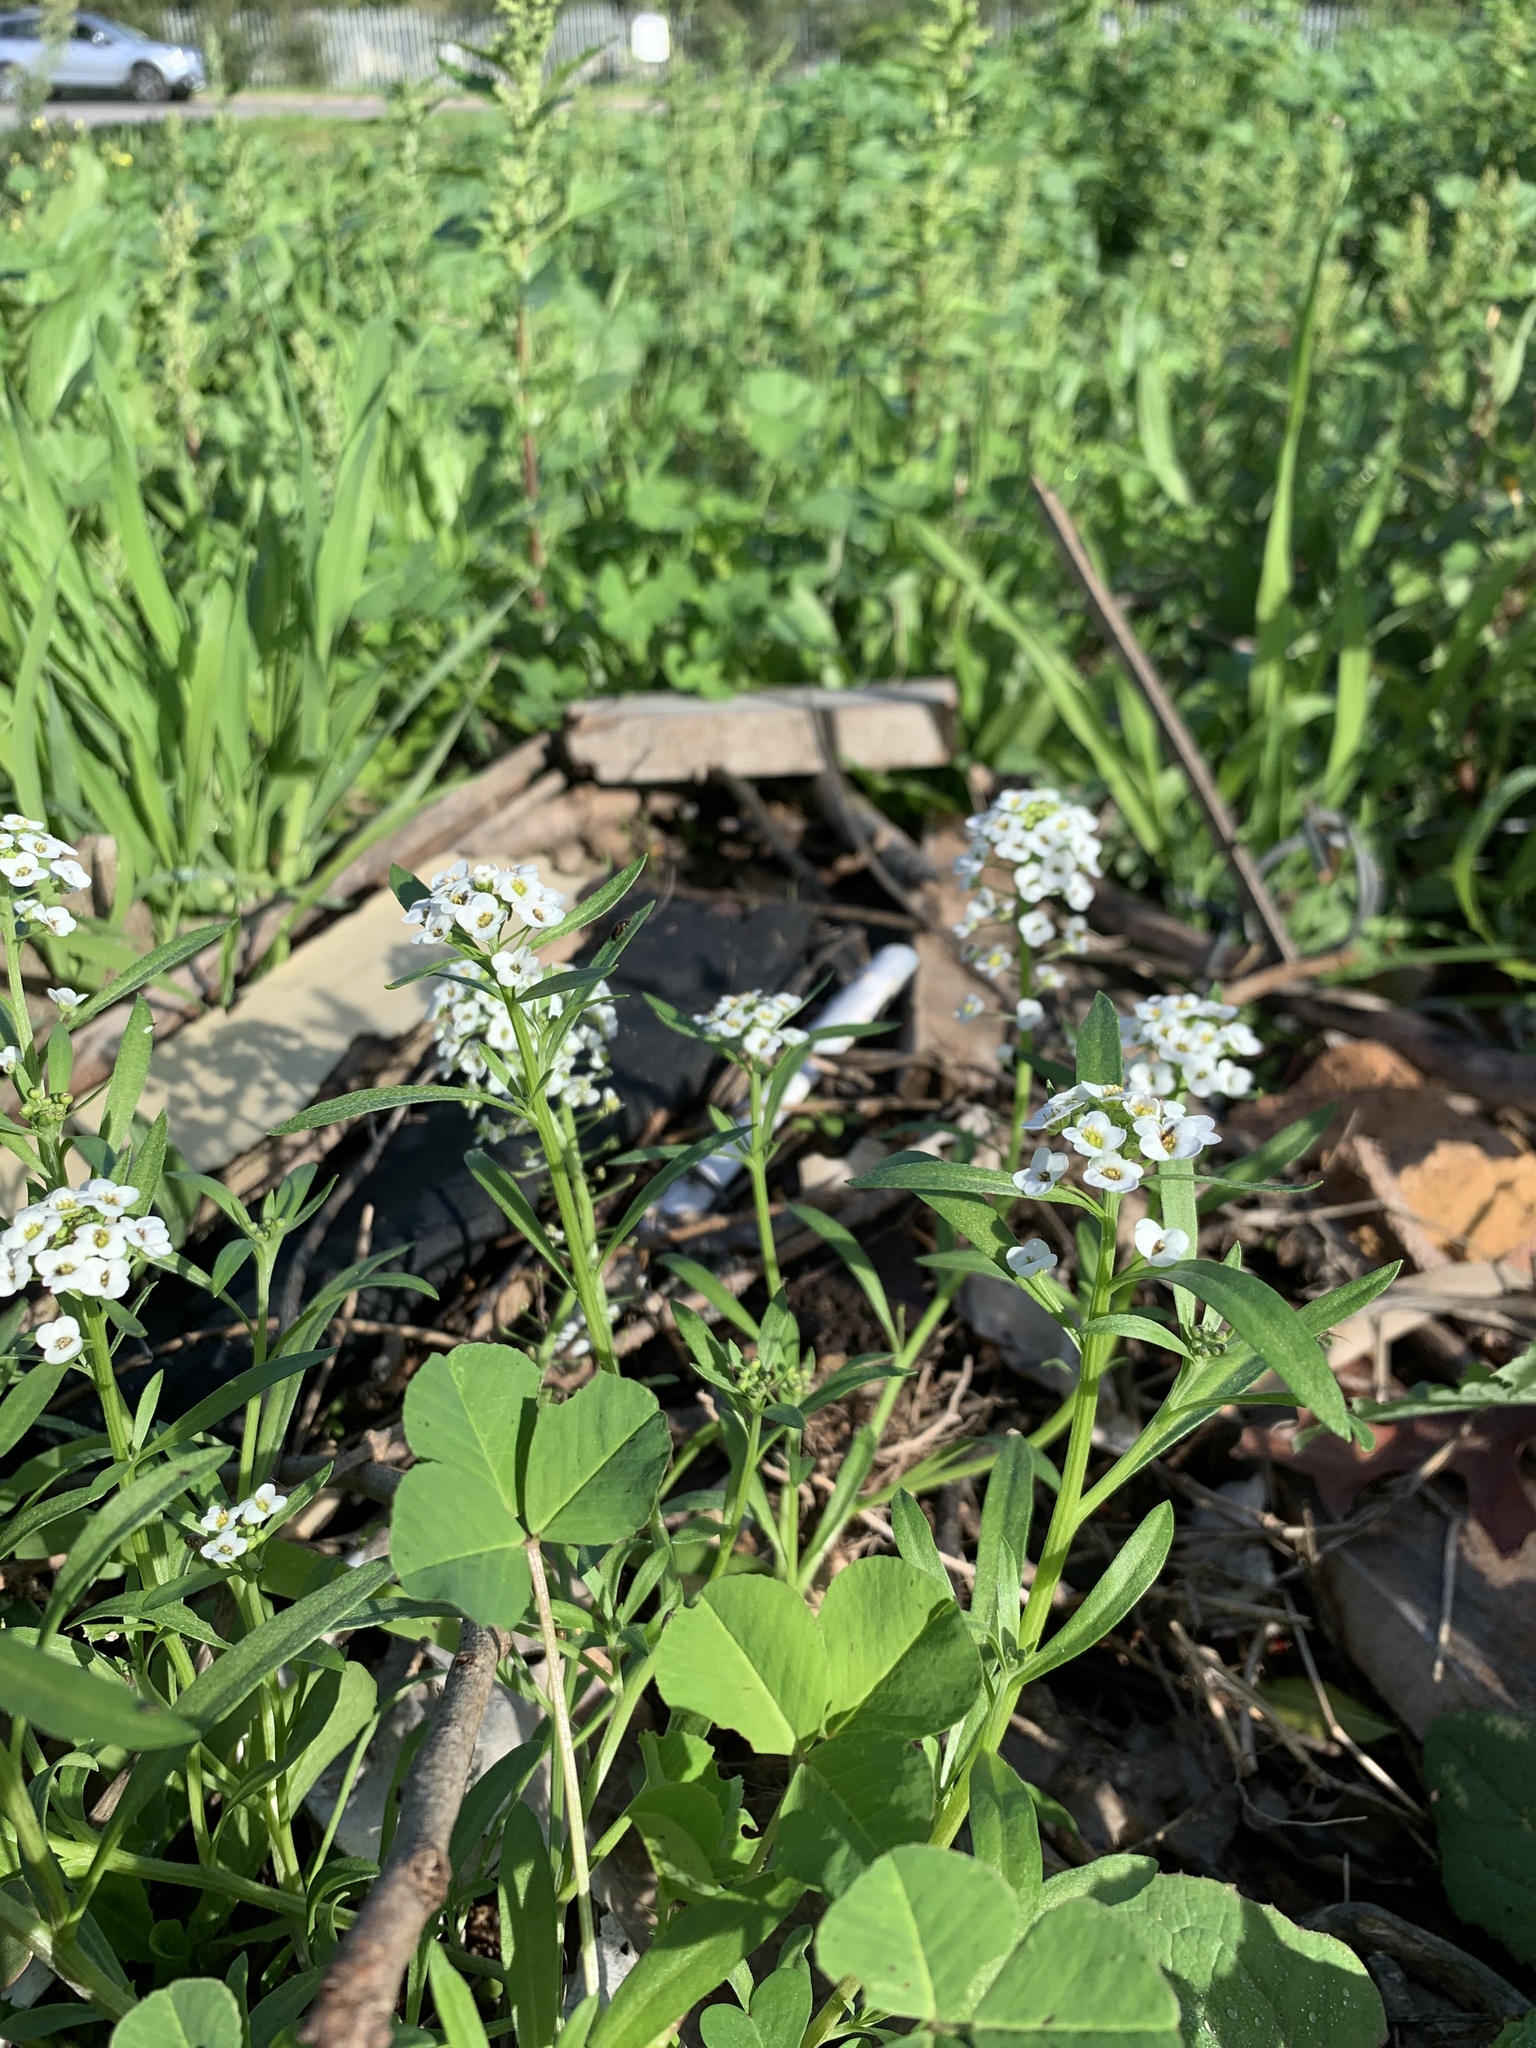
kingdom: Plantae
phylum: Tracheophyta
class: Magnoliopsida
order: Brassicales
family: Brassicaceae
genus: Lobularia
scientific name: Lobularia maritima
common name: Sweet alison
